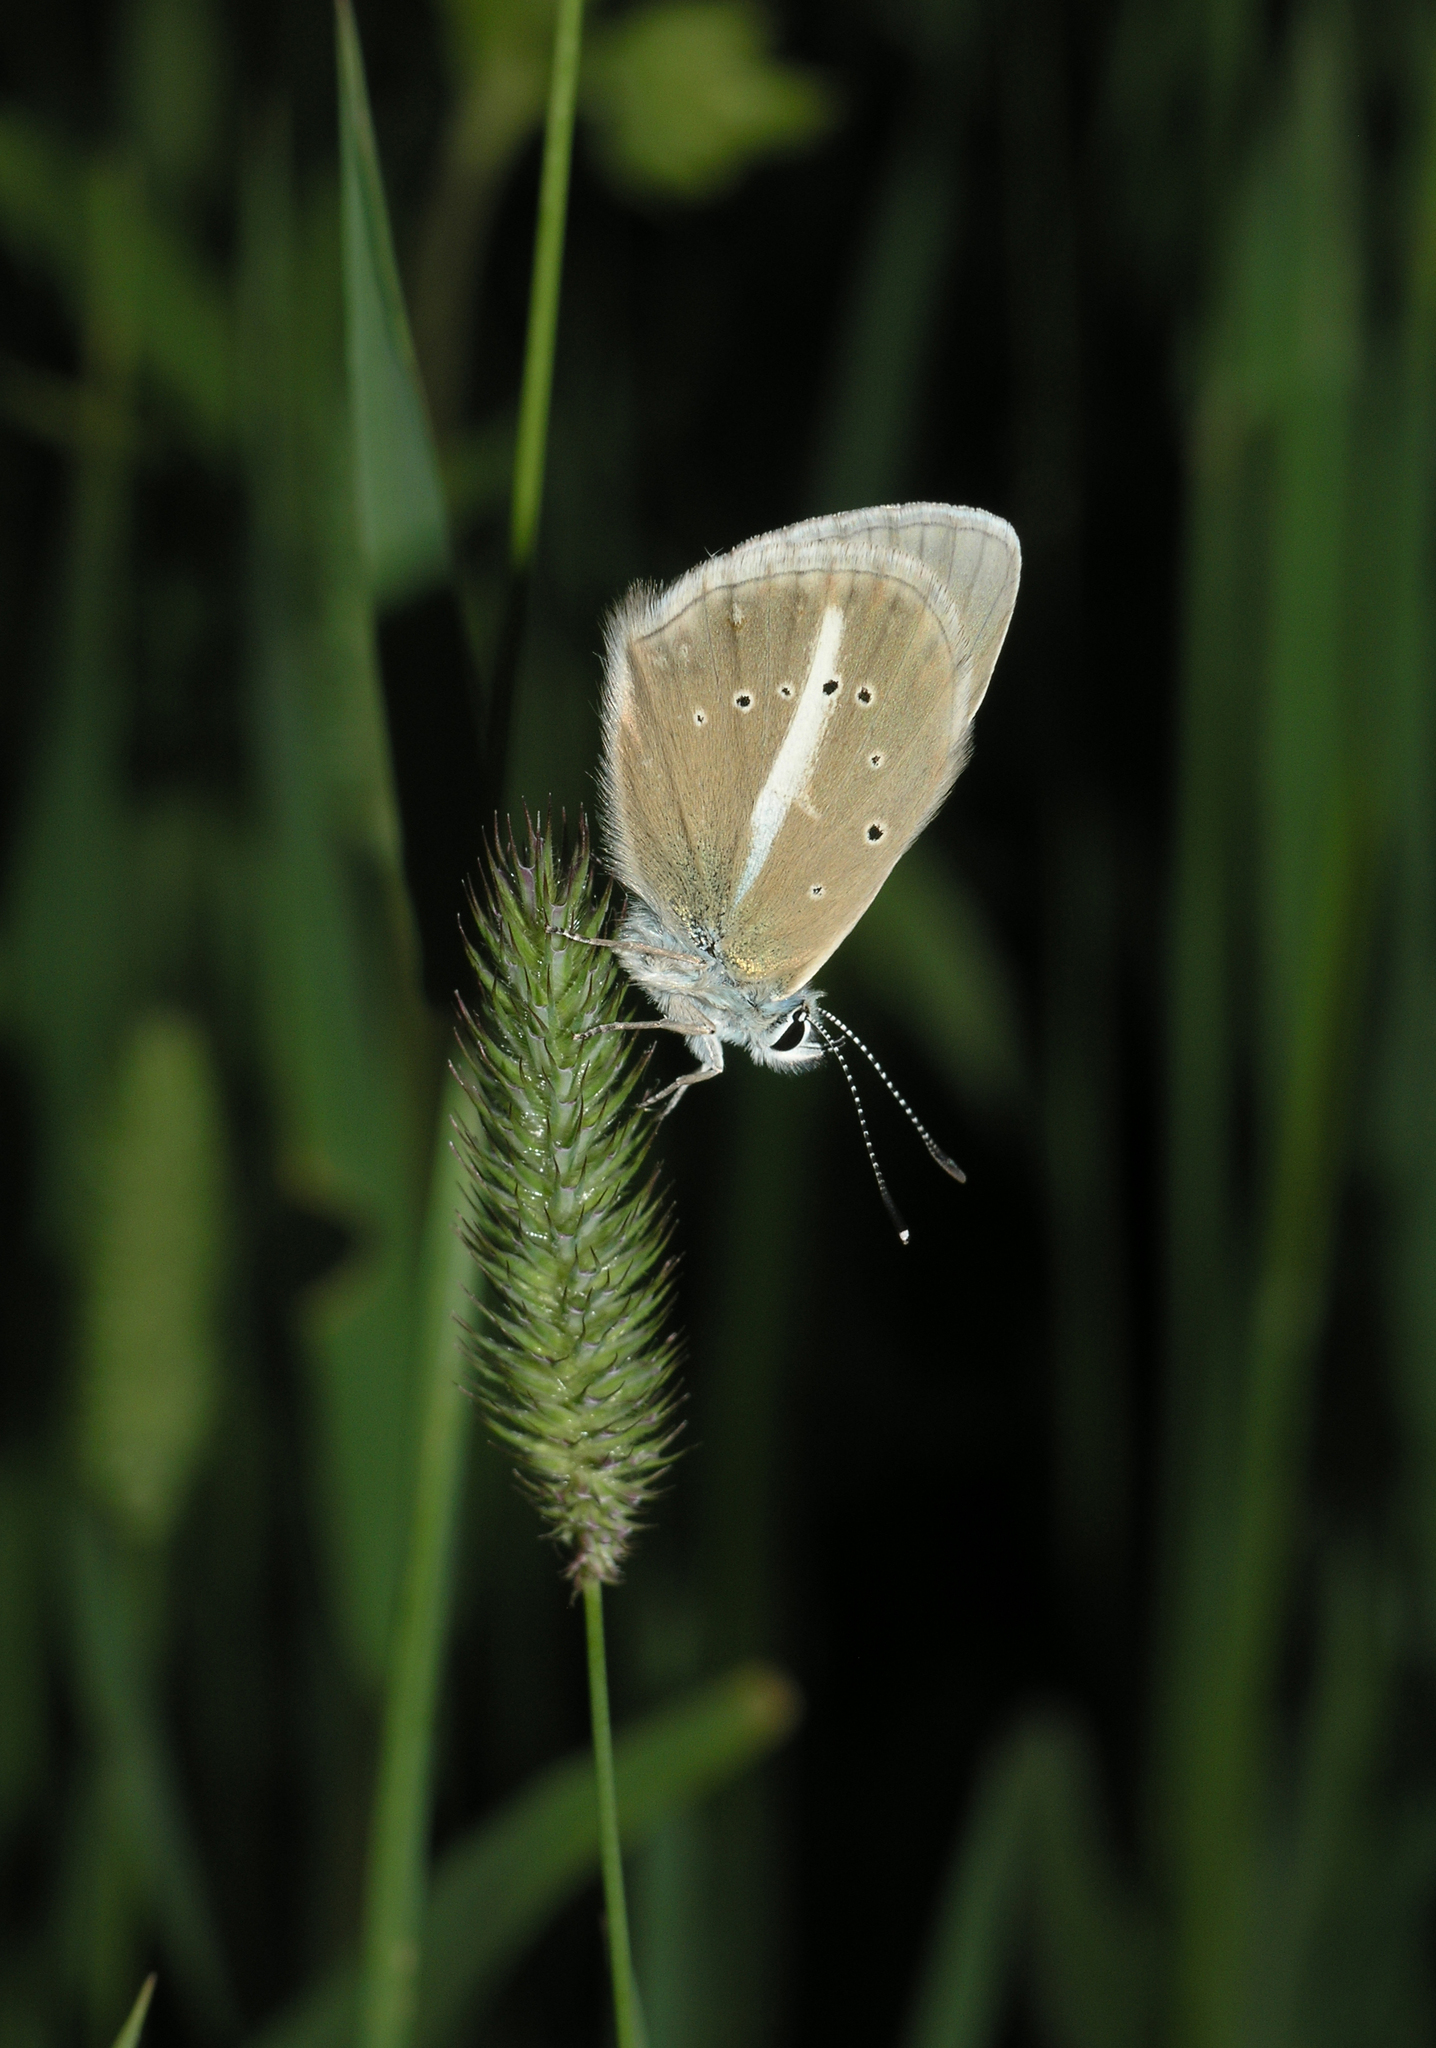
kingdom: Plantae
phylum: Tracheophyta
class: Liliopsida
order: Poales
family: Poaceae
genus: Phleum
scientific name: Phleum pratense
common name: Timothy grass
